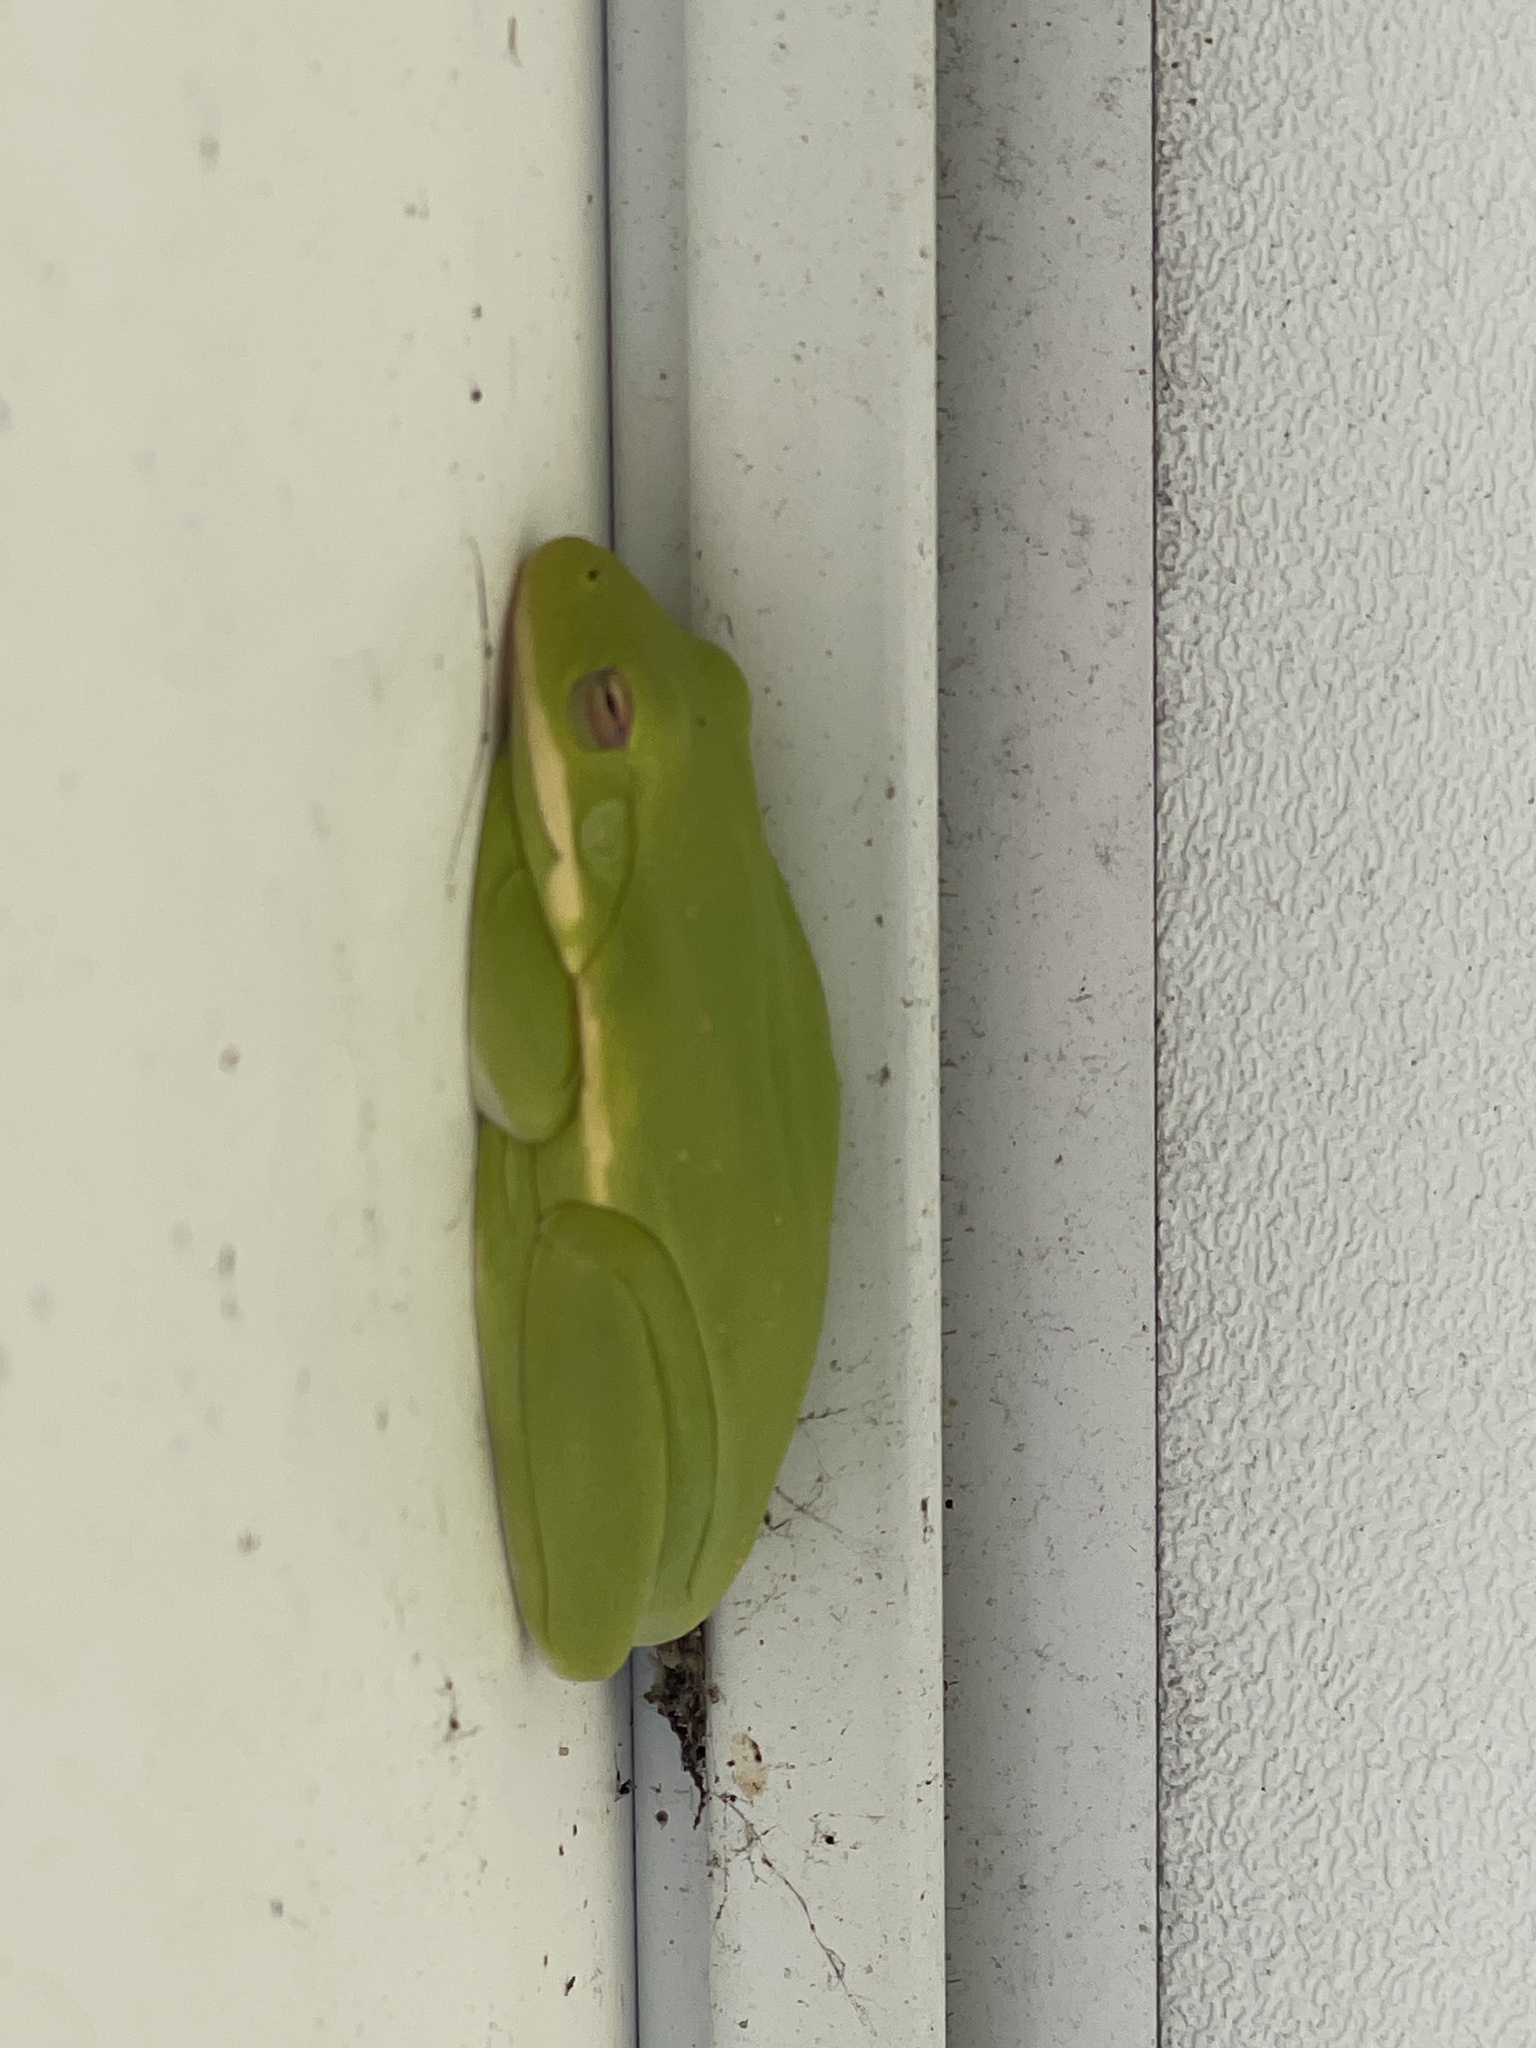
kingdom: Animalia
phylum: Chordata
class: Amphibia
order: Anura
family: Hylidae
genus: Dryophytes
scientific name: Dryophytes cinereus
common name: Green treefrog
